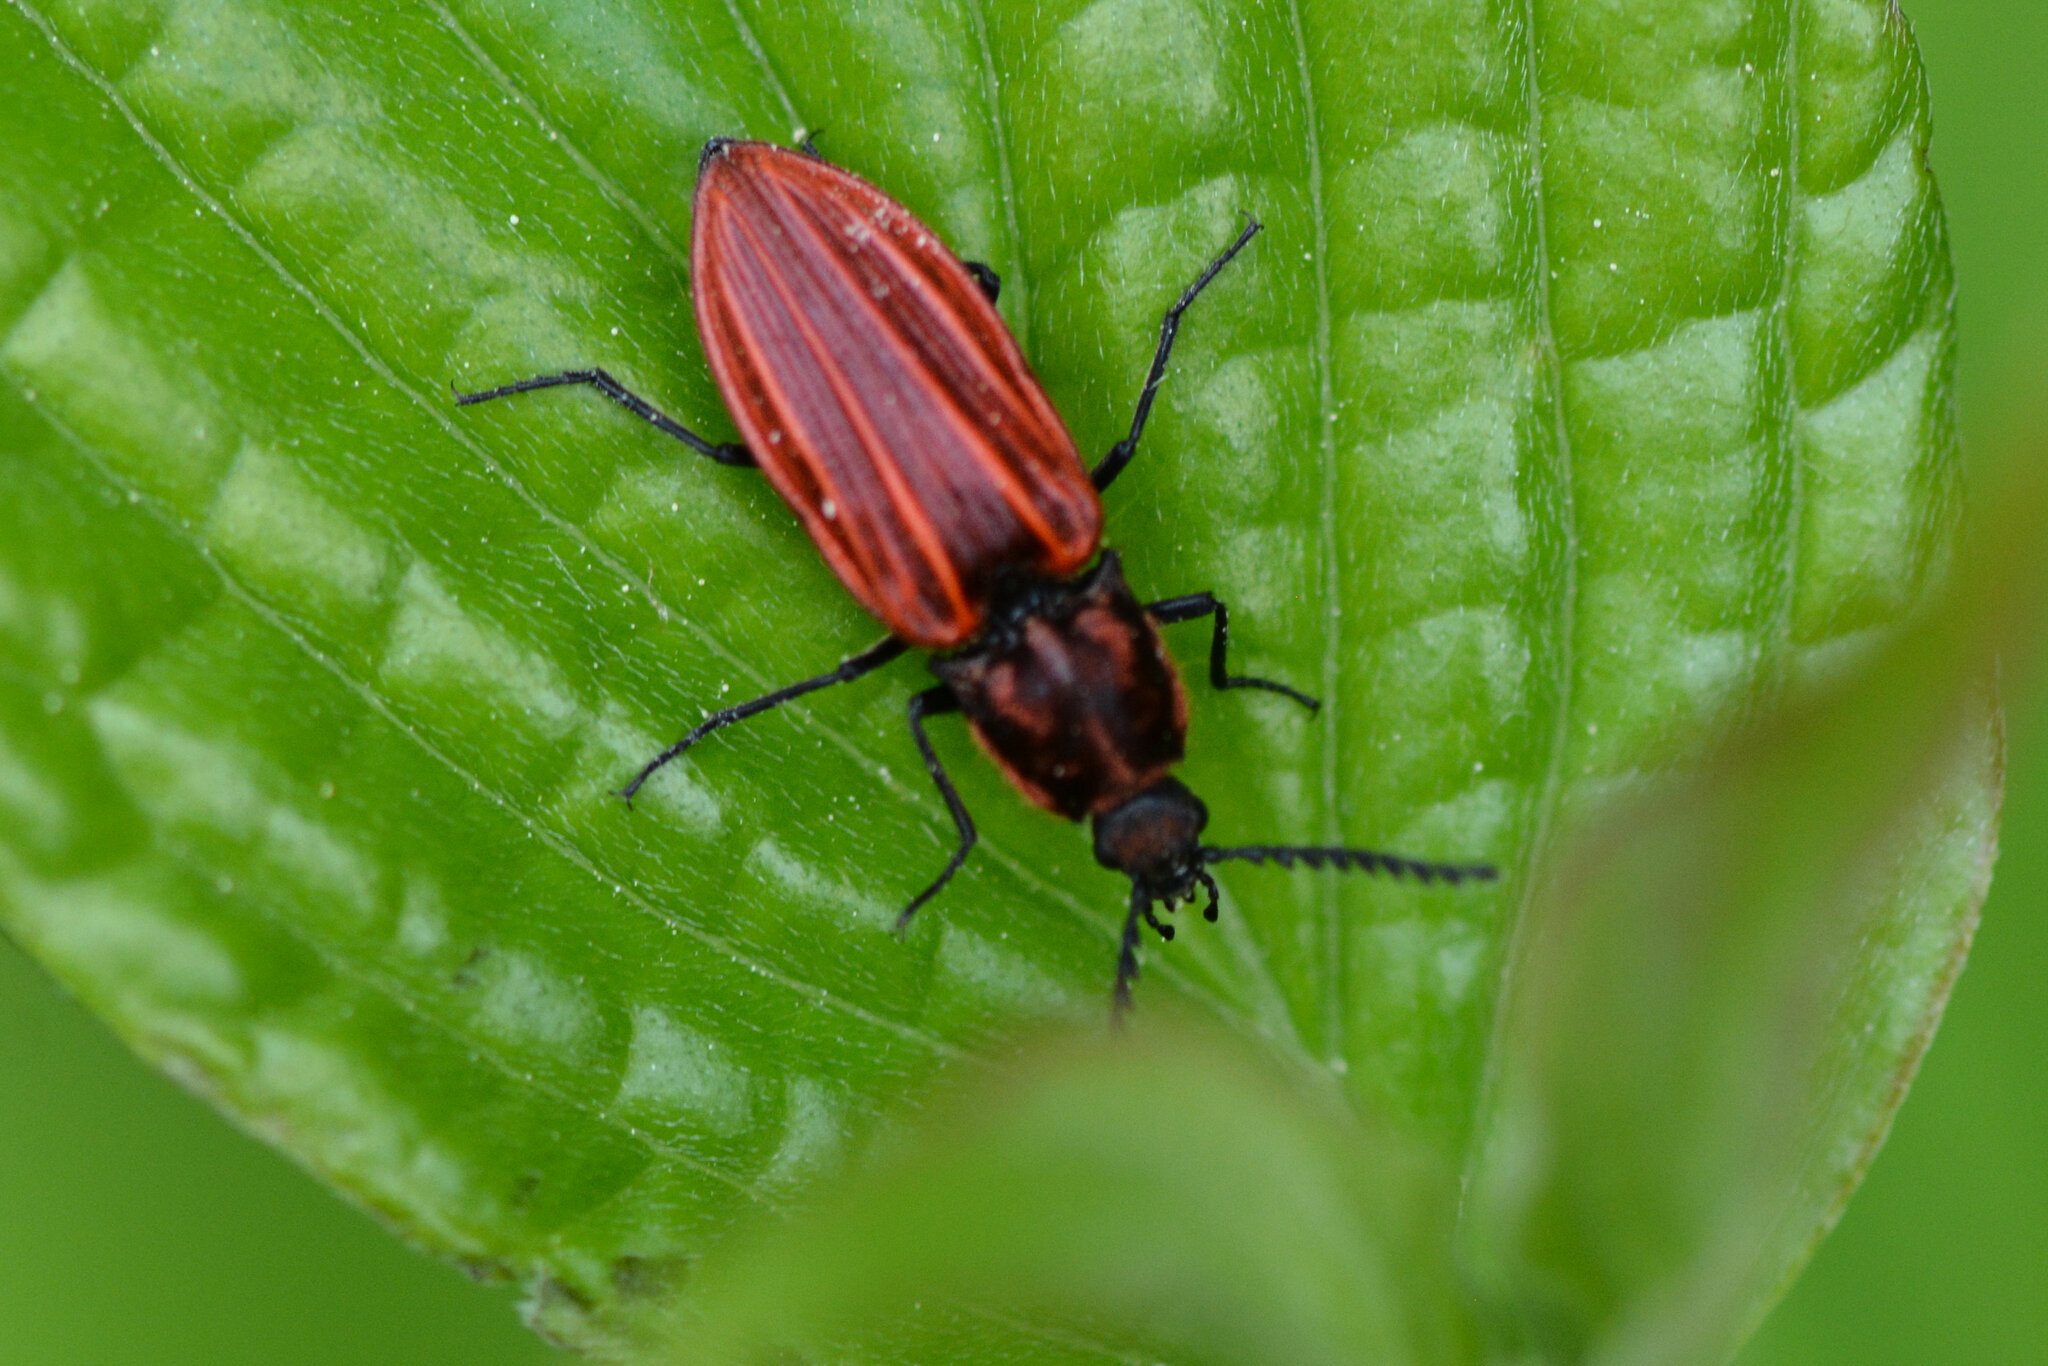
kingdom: Animalia
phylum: Arthropoda
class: Insecta
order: Coleoptera
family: Elateridae
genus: Anostirus
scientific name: Anostirus purpureus
